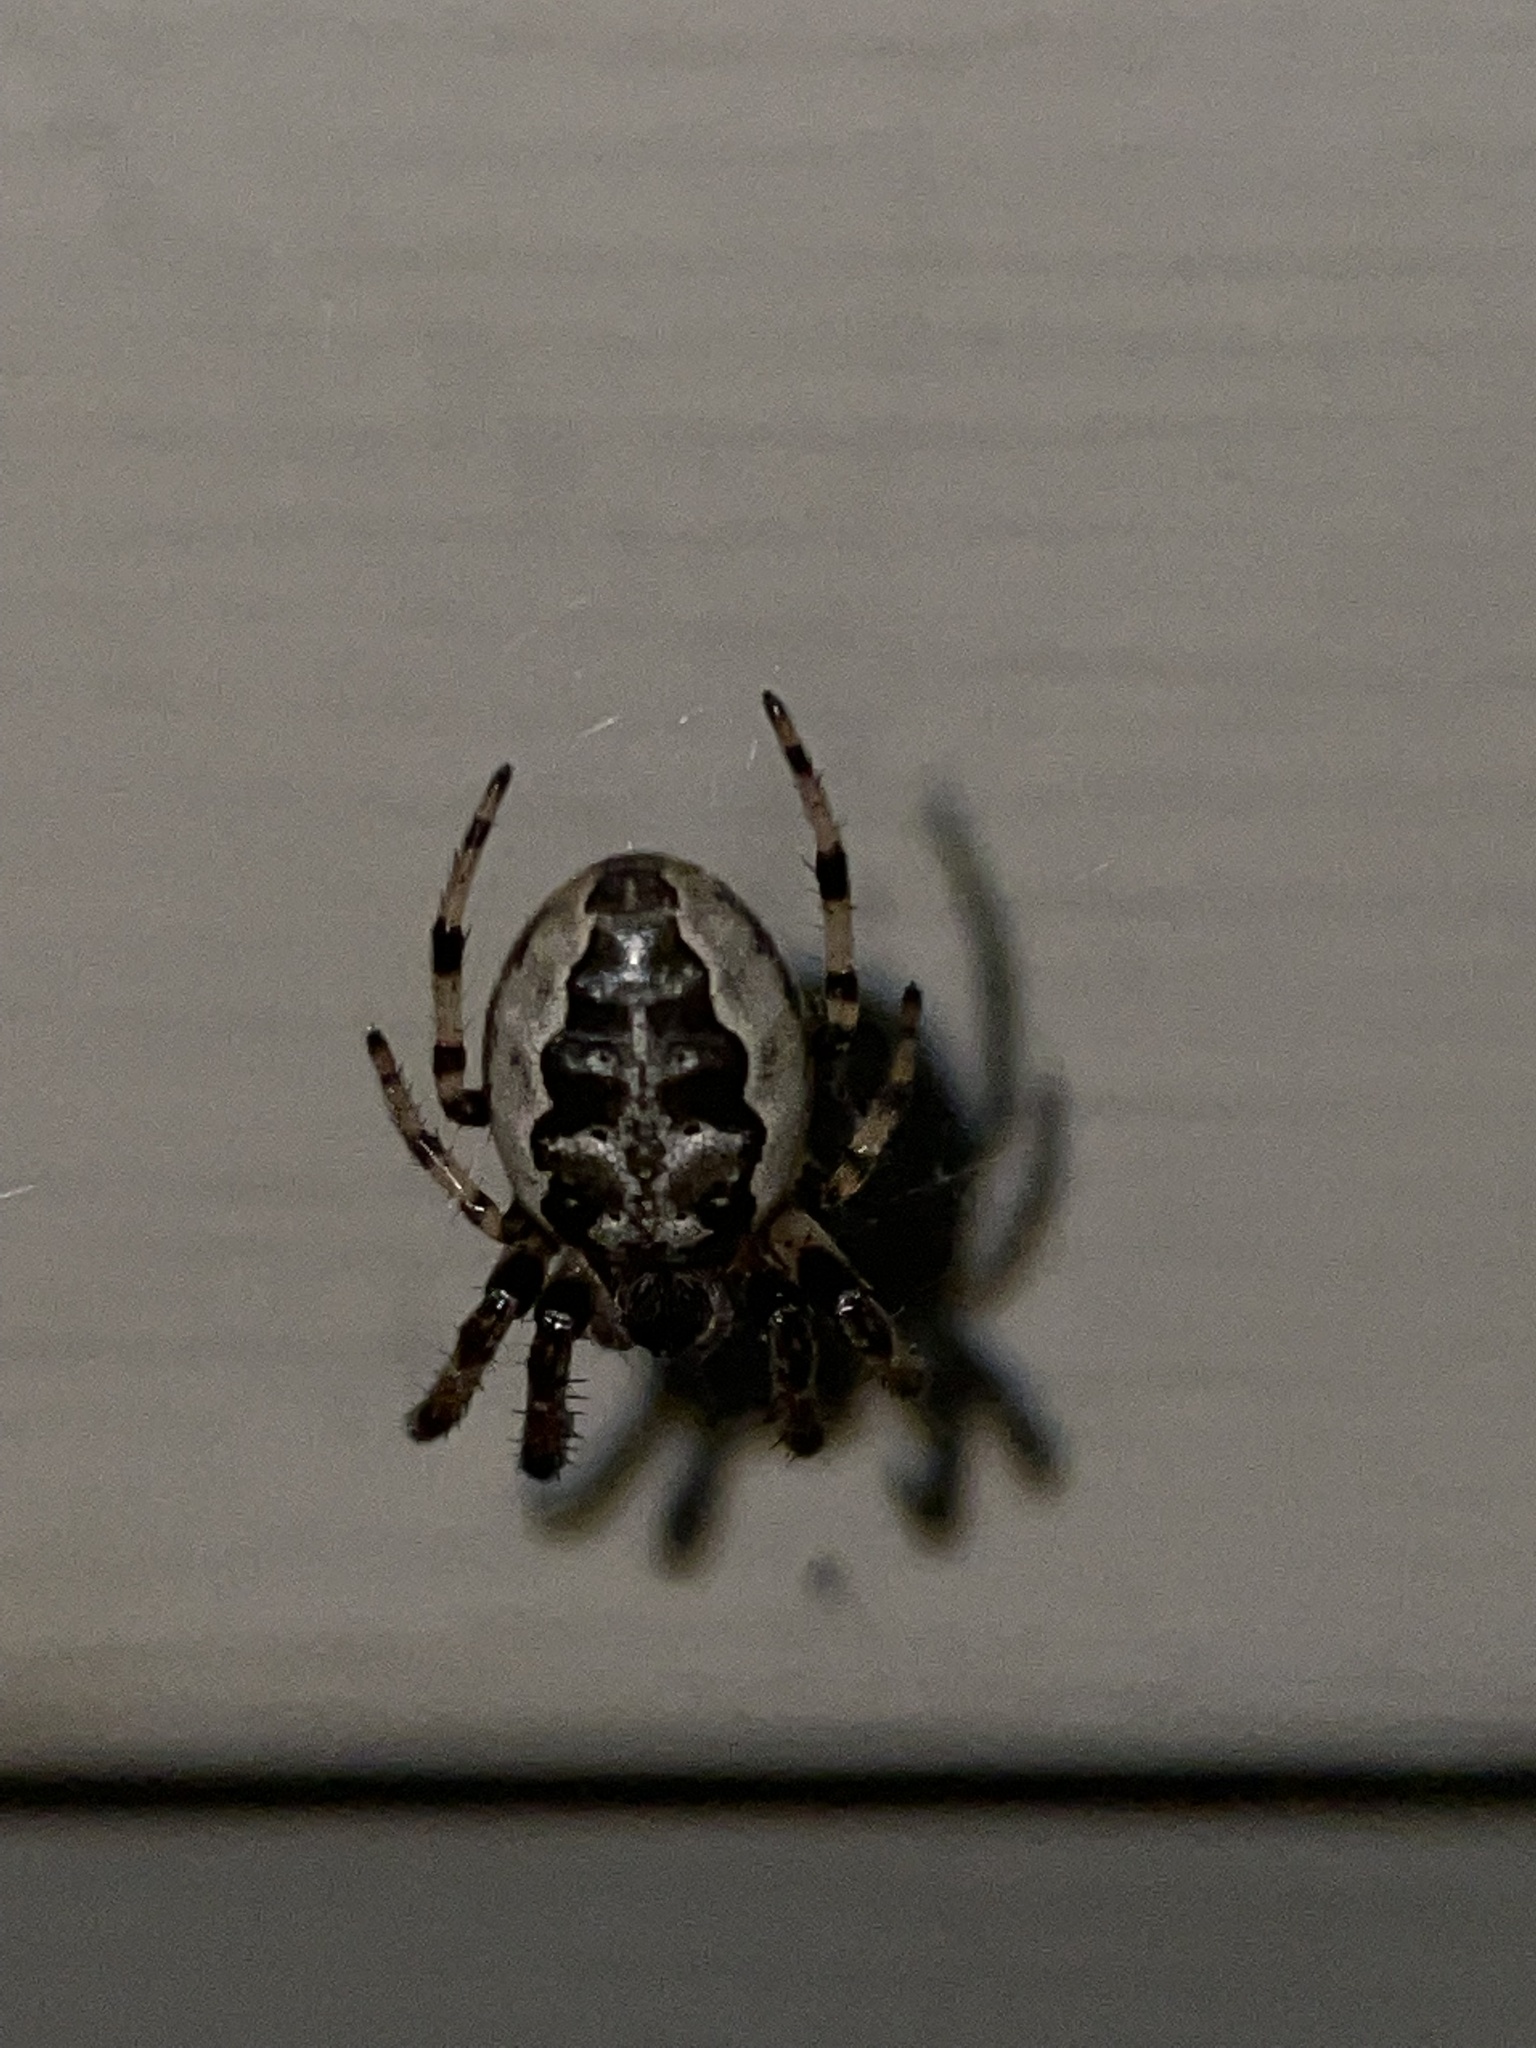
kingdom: Animalia
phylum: Arthropoda
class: Arachnida
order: Araneae
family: Araneidae
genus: Larinioides
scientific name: Larinioides cornutus
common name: Furrow orbweaver
